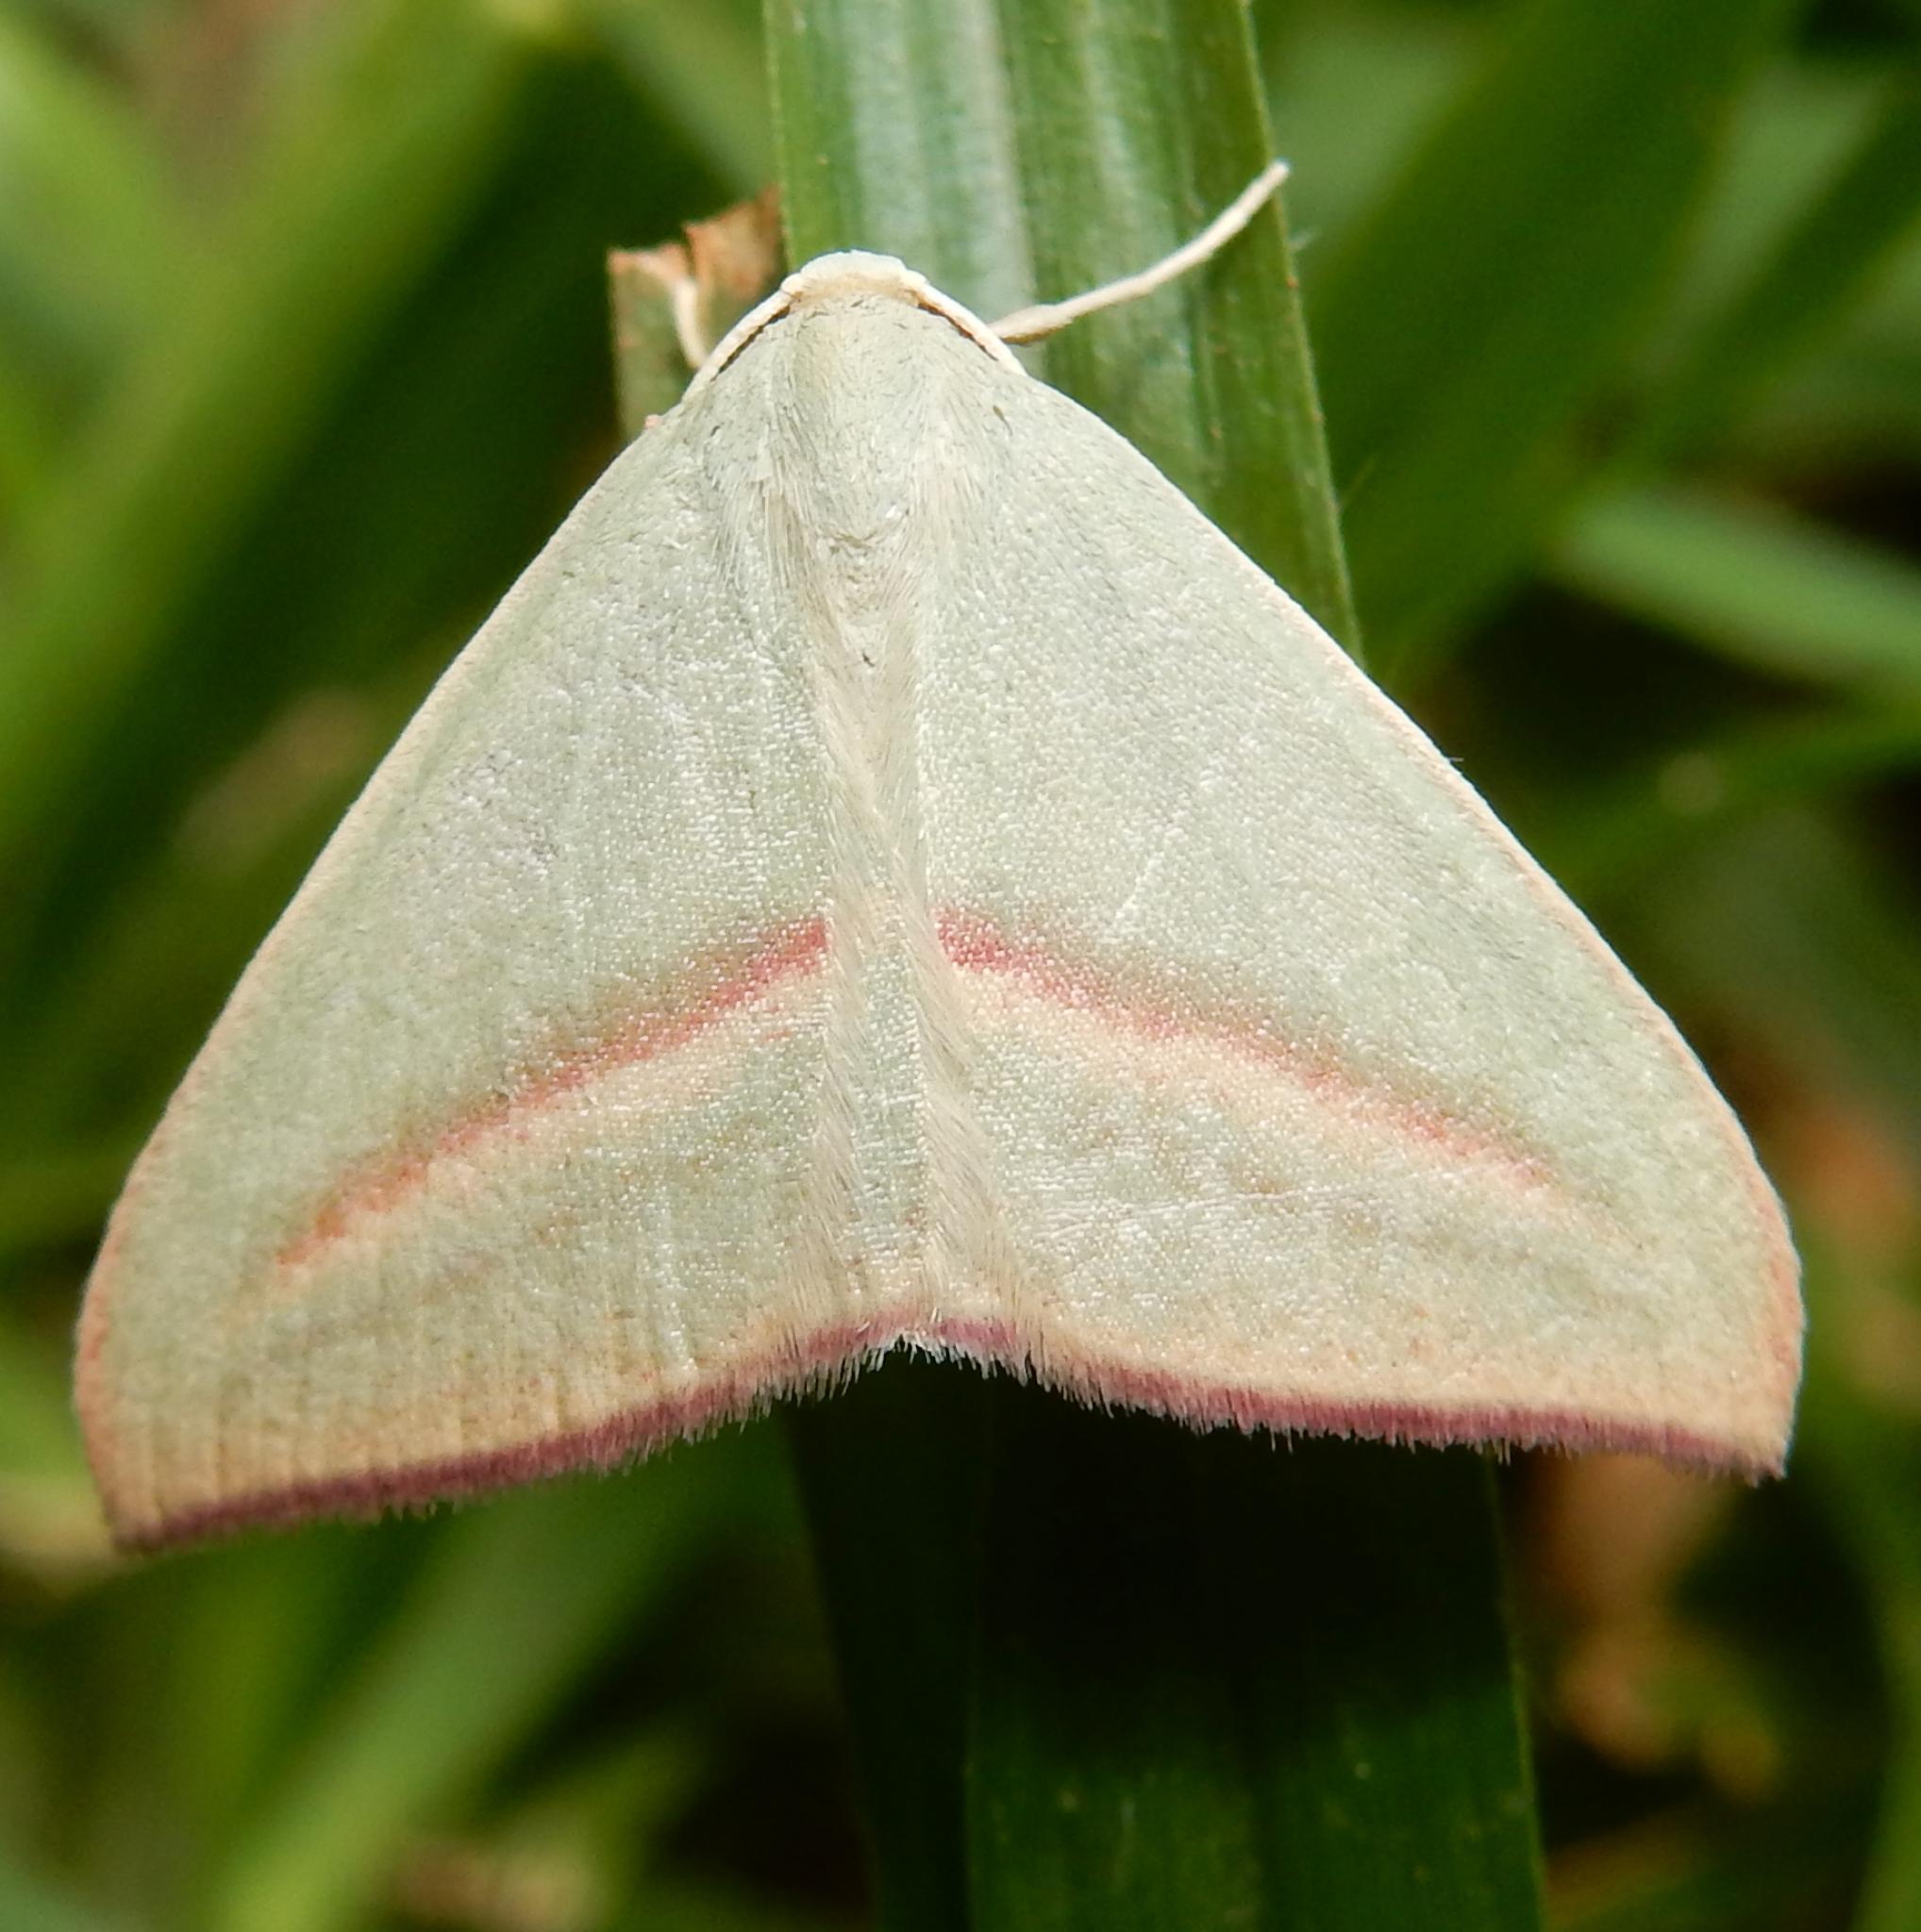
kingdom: Animalia
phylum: Arthropoda
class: Insecta
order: Lepidoptera
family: Geometridae
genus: Chlorerythra
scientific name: Chlorerythra rubriplaga
